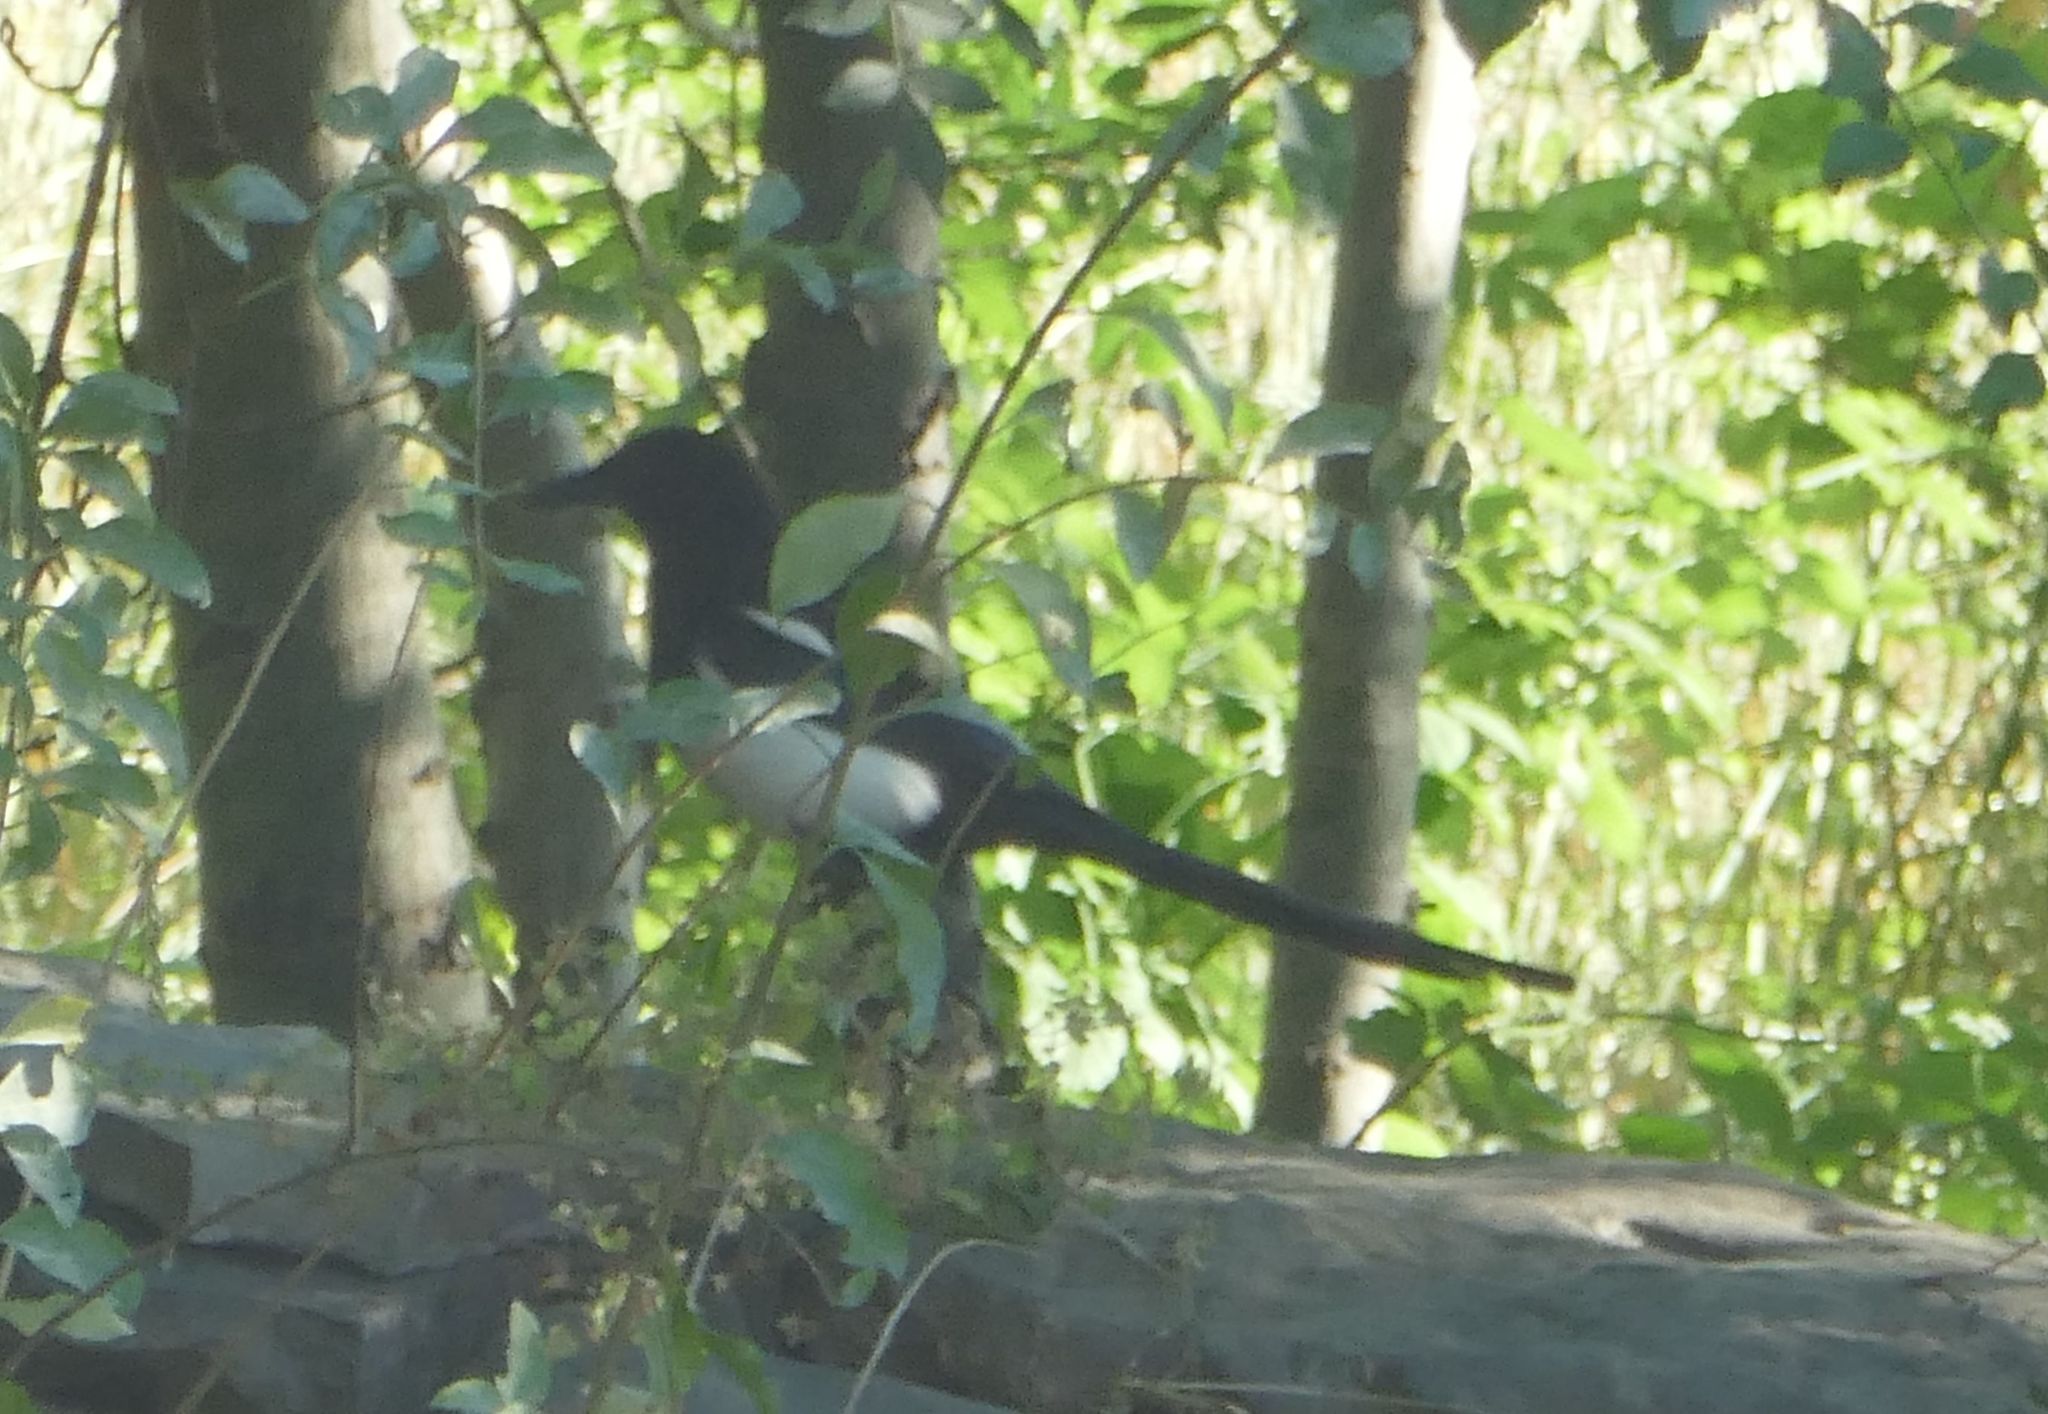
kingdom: Animalia
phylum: Chordata
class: Aves
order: Passeriformes
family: Corvidae
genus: Pica
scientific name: Pica pica
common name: Eurasian magpie
